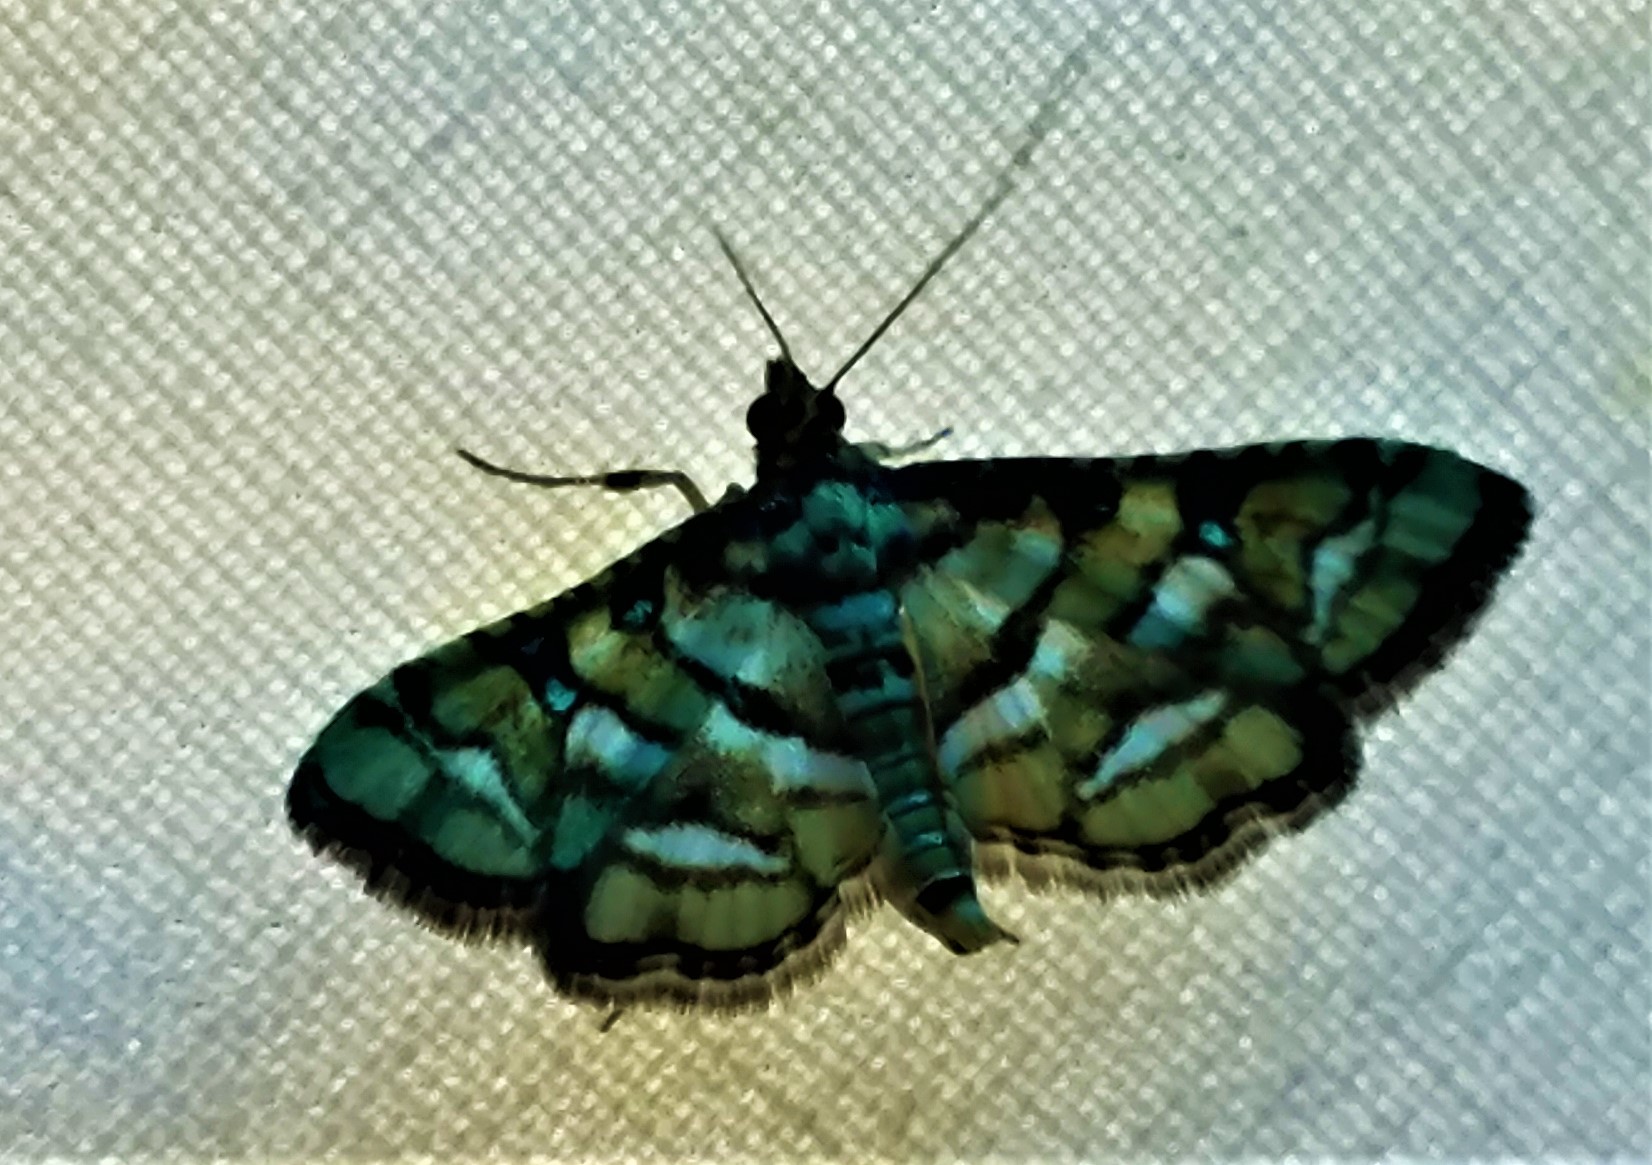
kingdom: Animalia
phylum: Arthropoda
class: Insecta
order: Lepidoptera
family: Crambidae
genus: Hileithia
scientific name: Hileithia magualis
